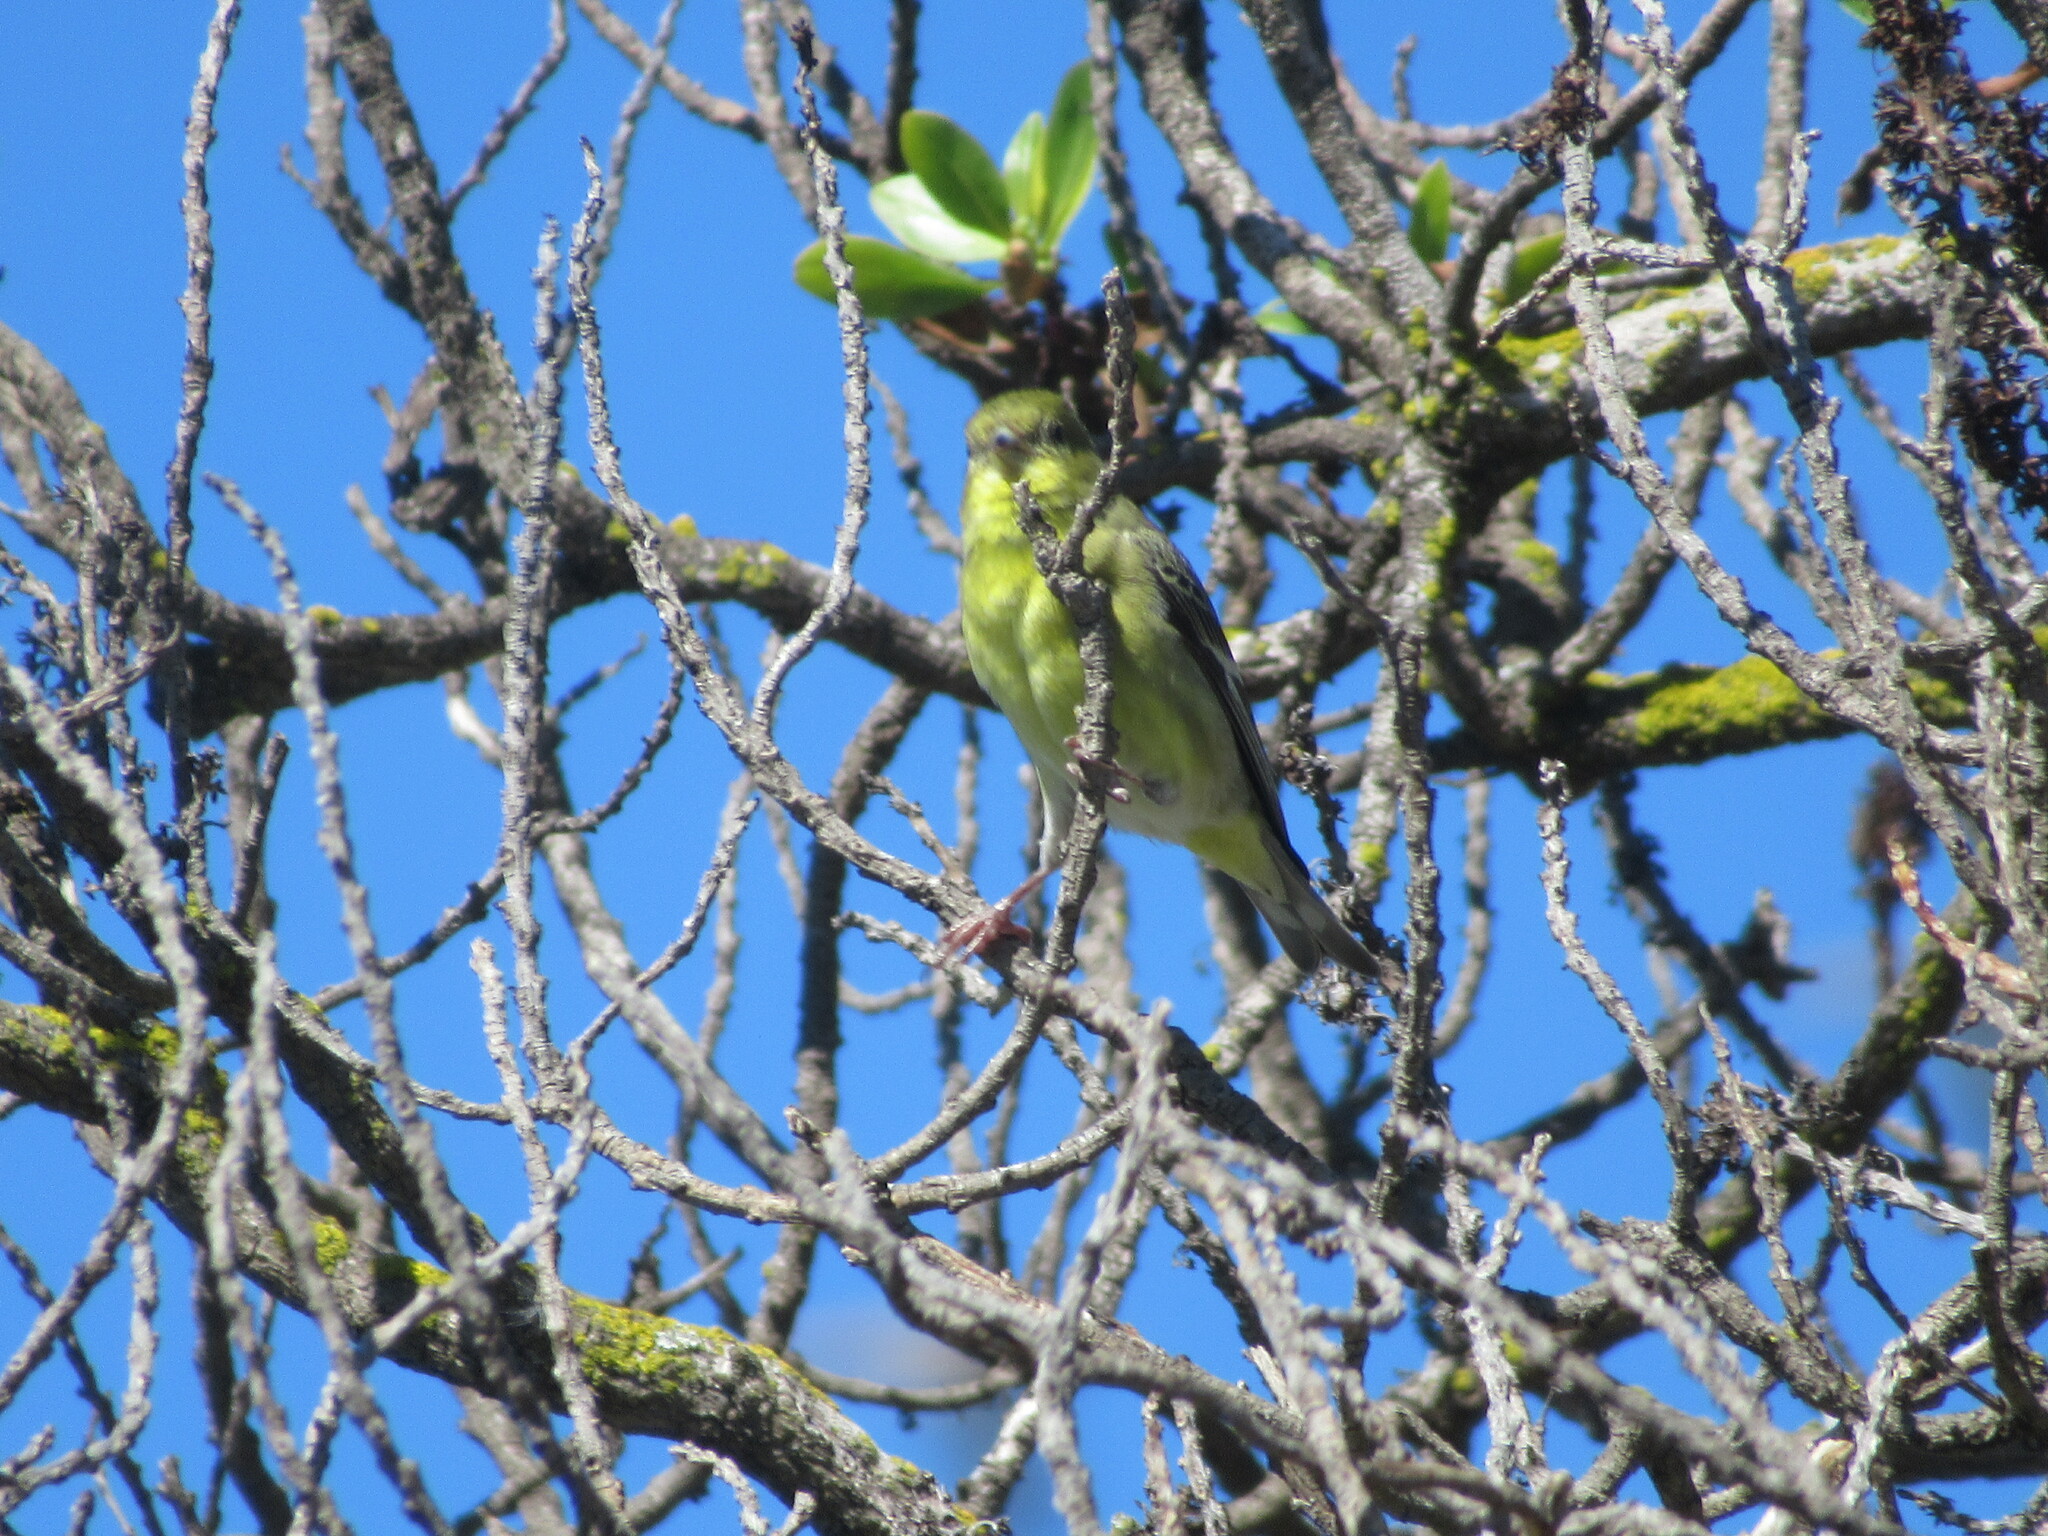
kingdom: Animalia
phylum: Chordata
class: Aves
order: Passeriformes
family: Fringillidae
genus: Spinus
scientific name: Spinus psaltria
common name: Lesser goldfinch
